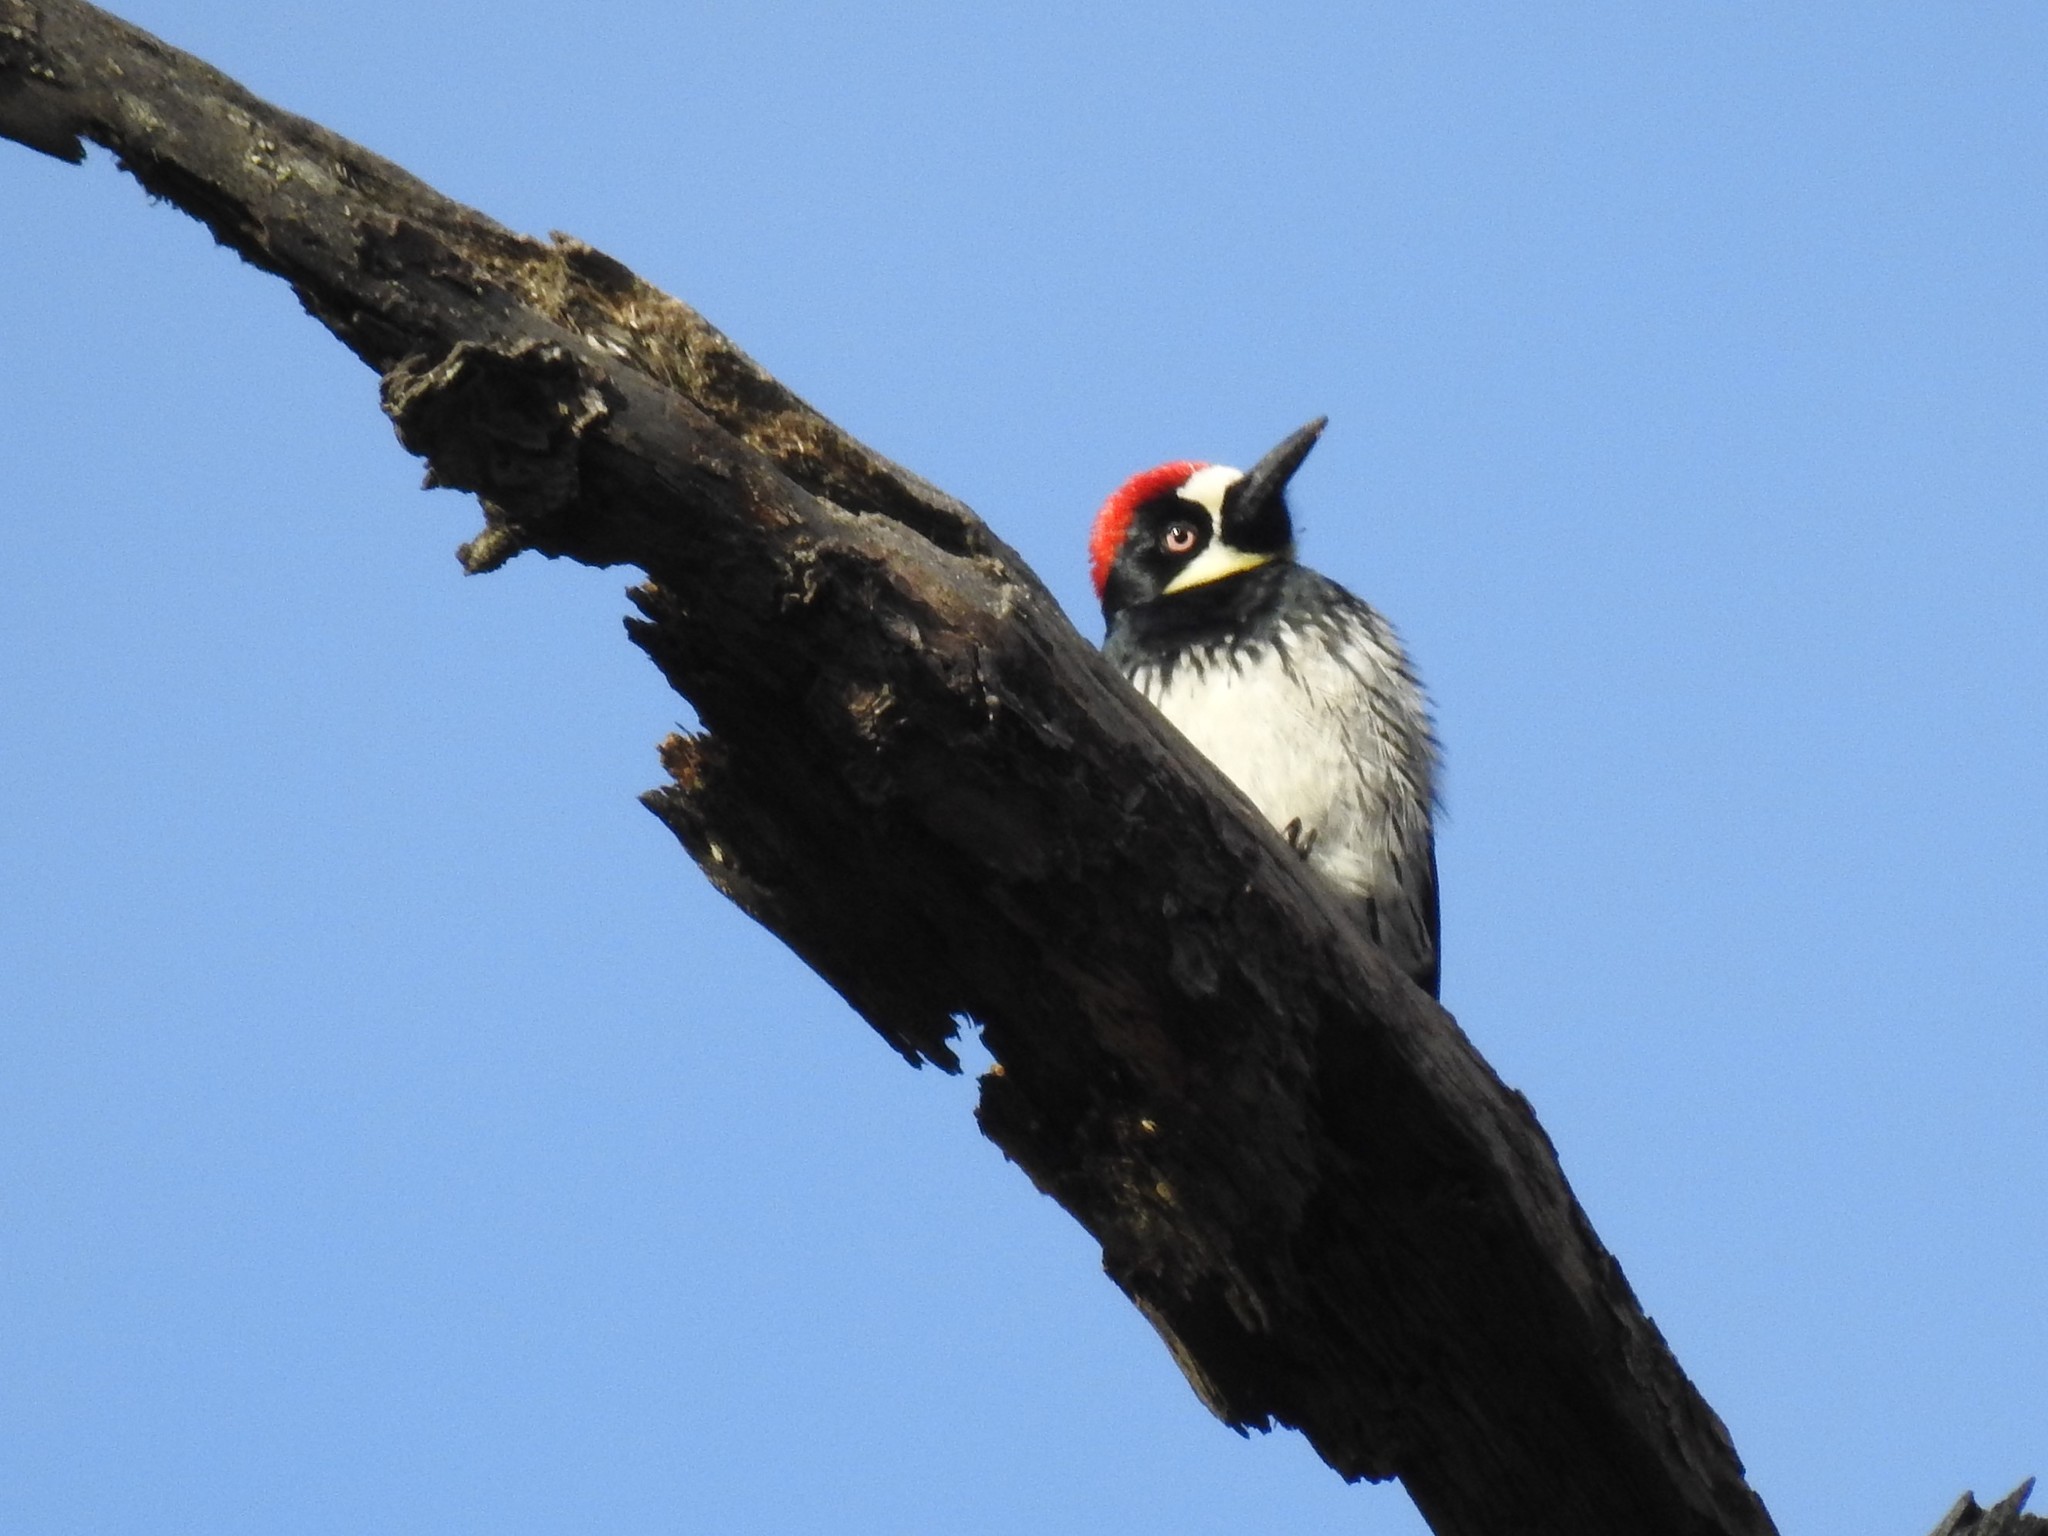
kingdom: Animalia
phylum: Chordata
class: Aves
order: Piciformes
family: Picidae
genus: Melanerpes
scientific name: Melanerpes formicivorus
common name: Acorn woodpecker
